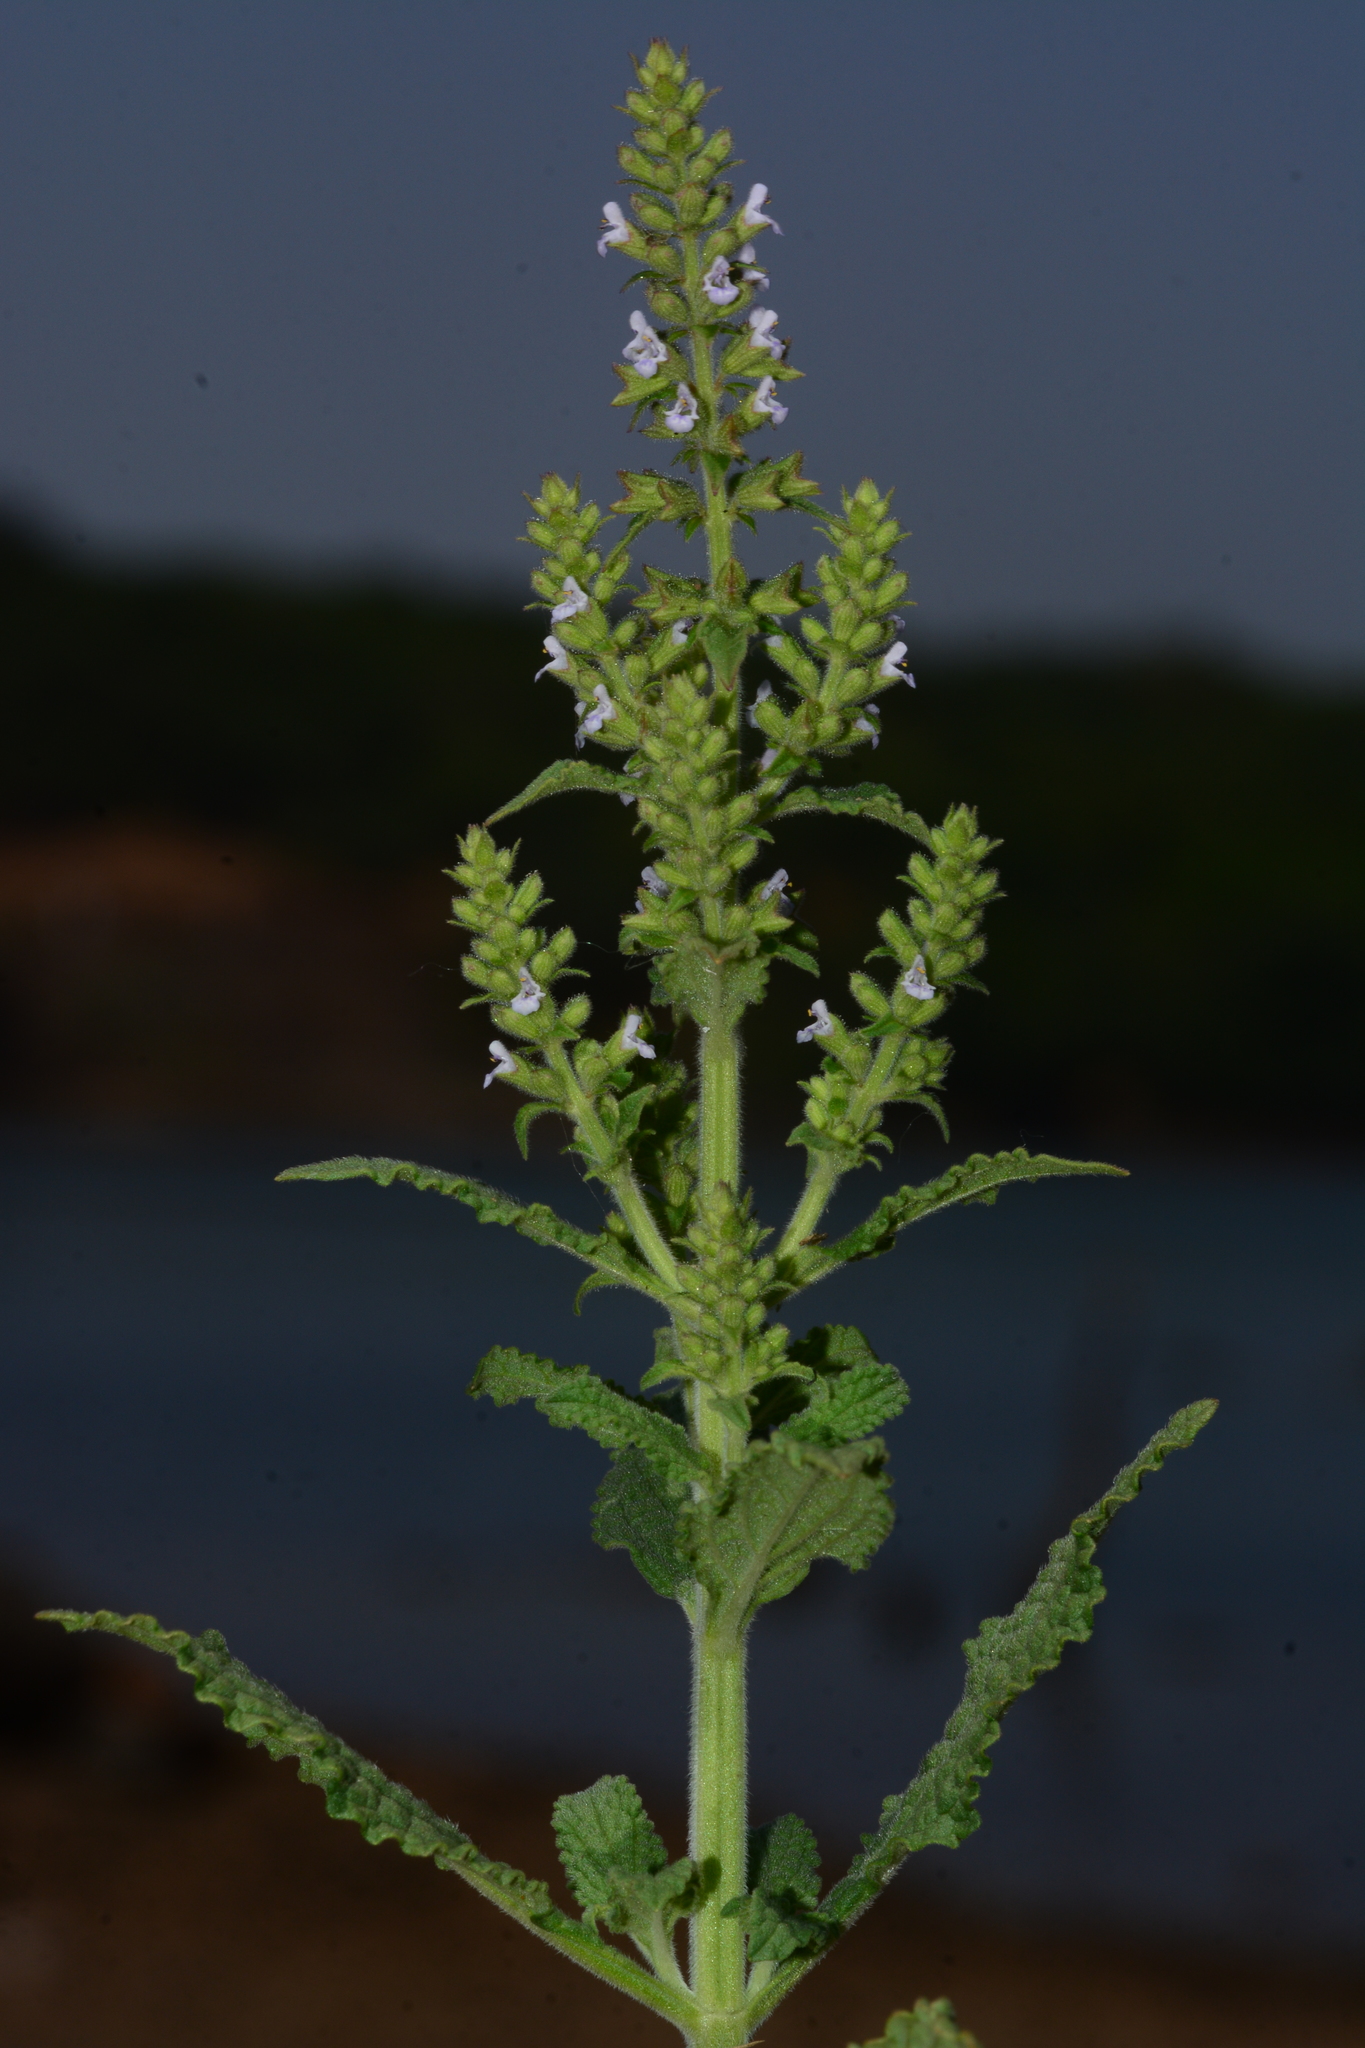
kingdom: Plantae
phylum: Tracheophyta
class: Magnoliopsida
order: Lamiales
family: Lamiaceae
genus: Salvia
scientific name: Salvia plebeia
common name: Australian sage
